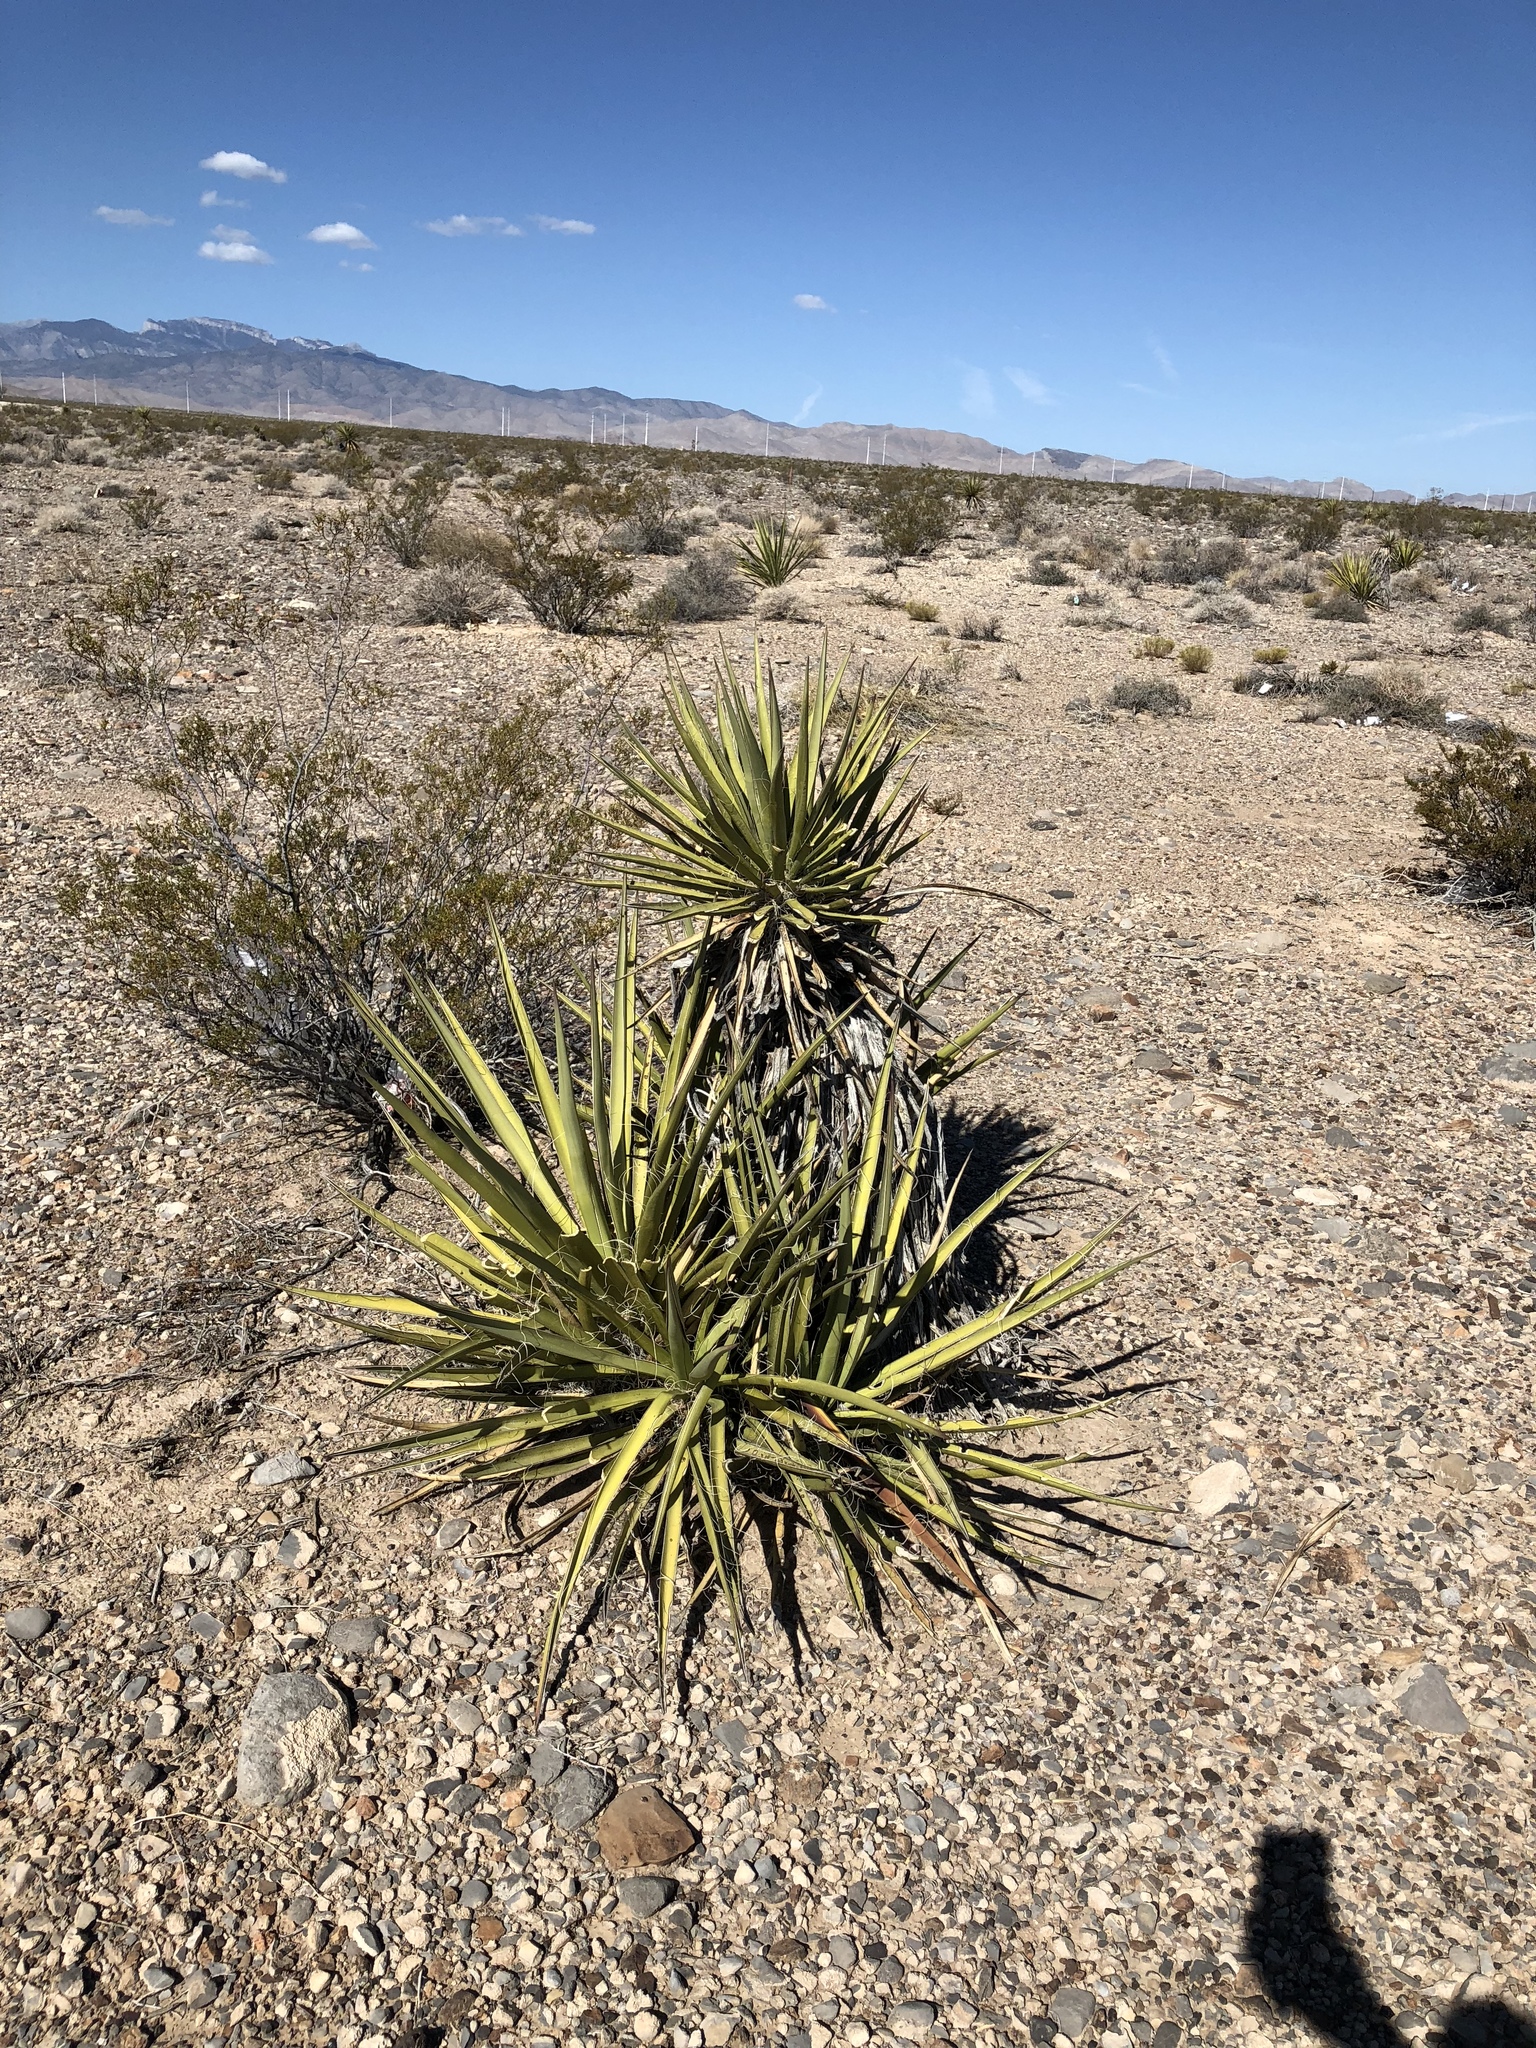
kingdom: Plantae
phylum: Tracheophyta
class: Liliopsida
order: Asparagales
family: Asparagaceae
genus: Yucca
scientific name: Yucca schidigera
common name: Mojave yucca
